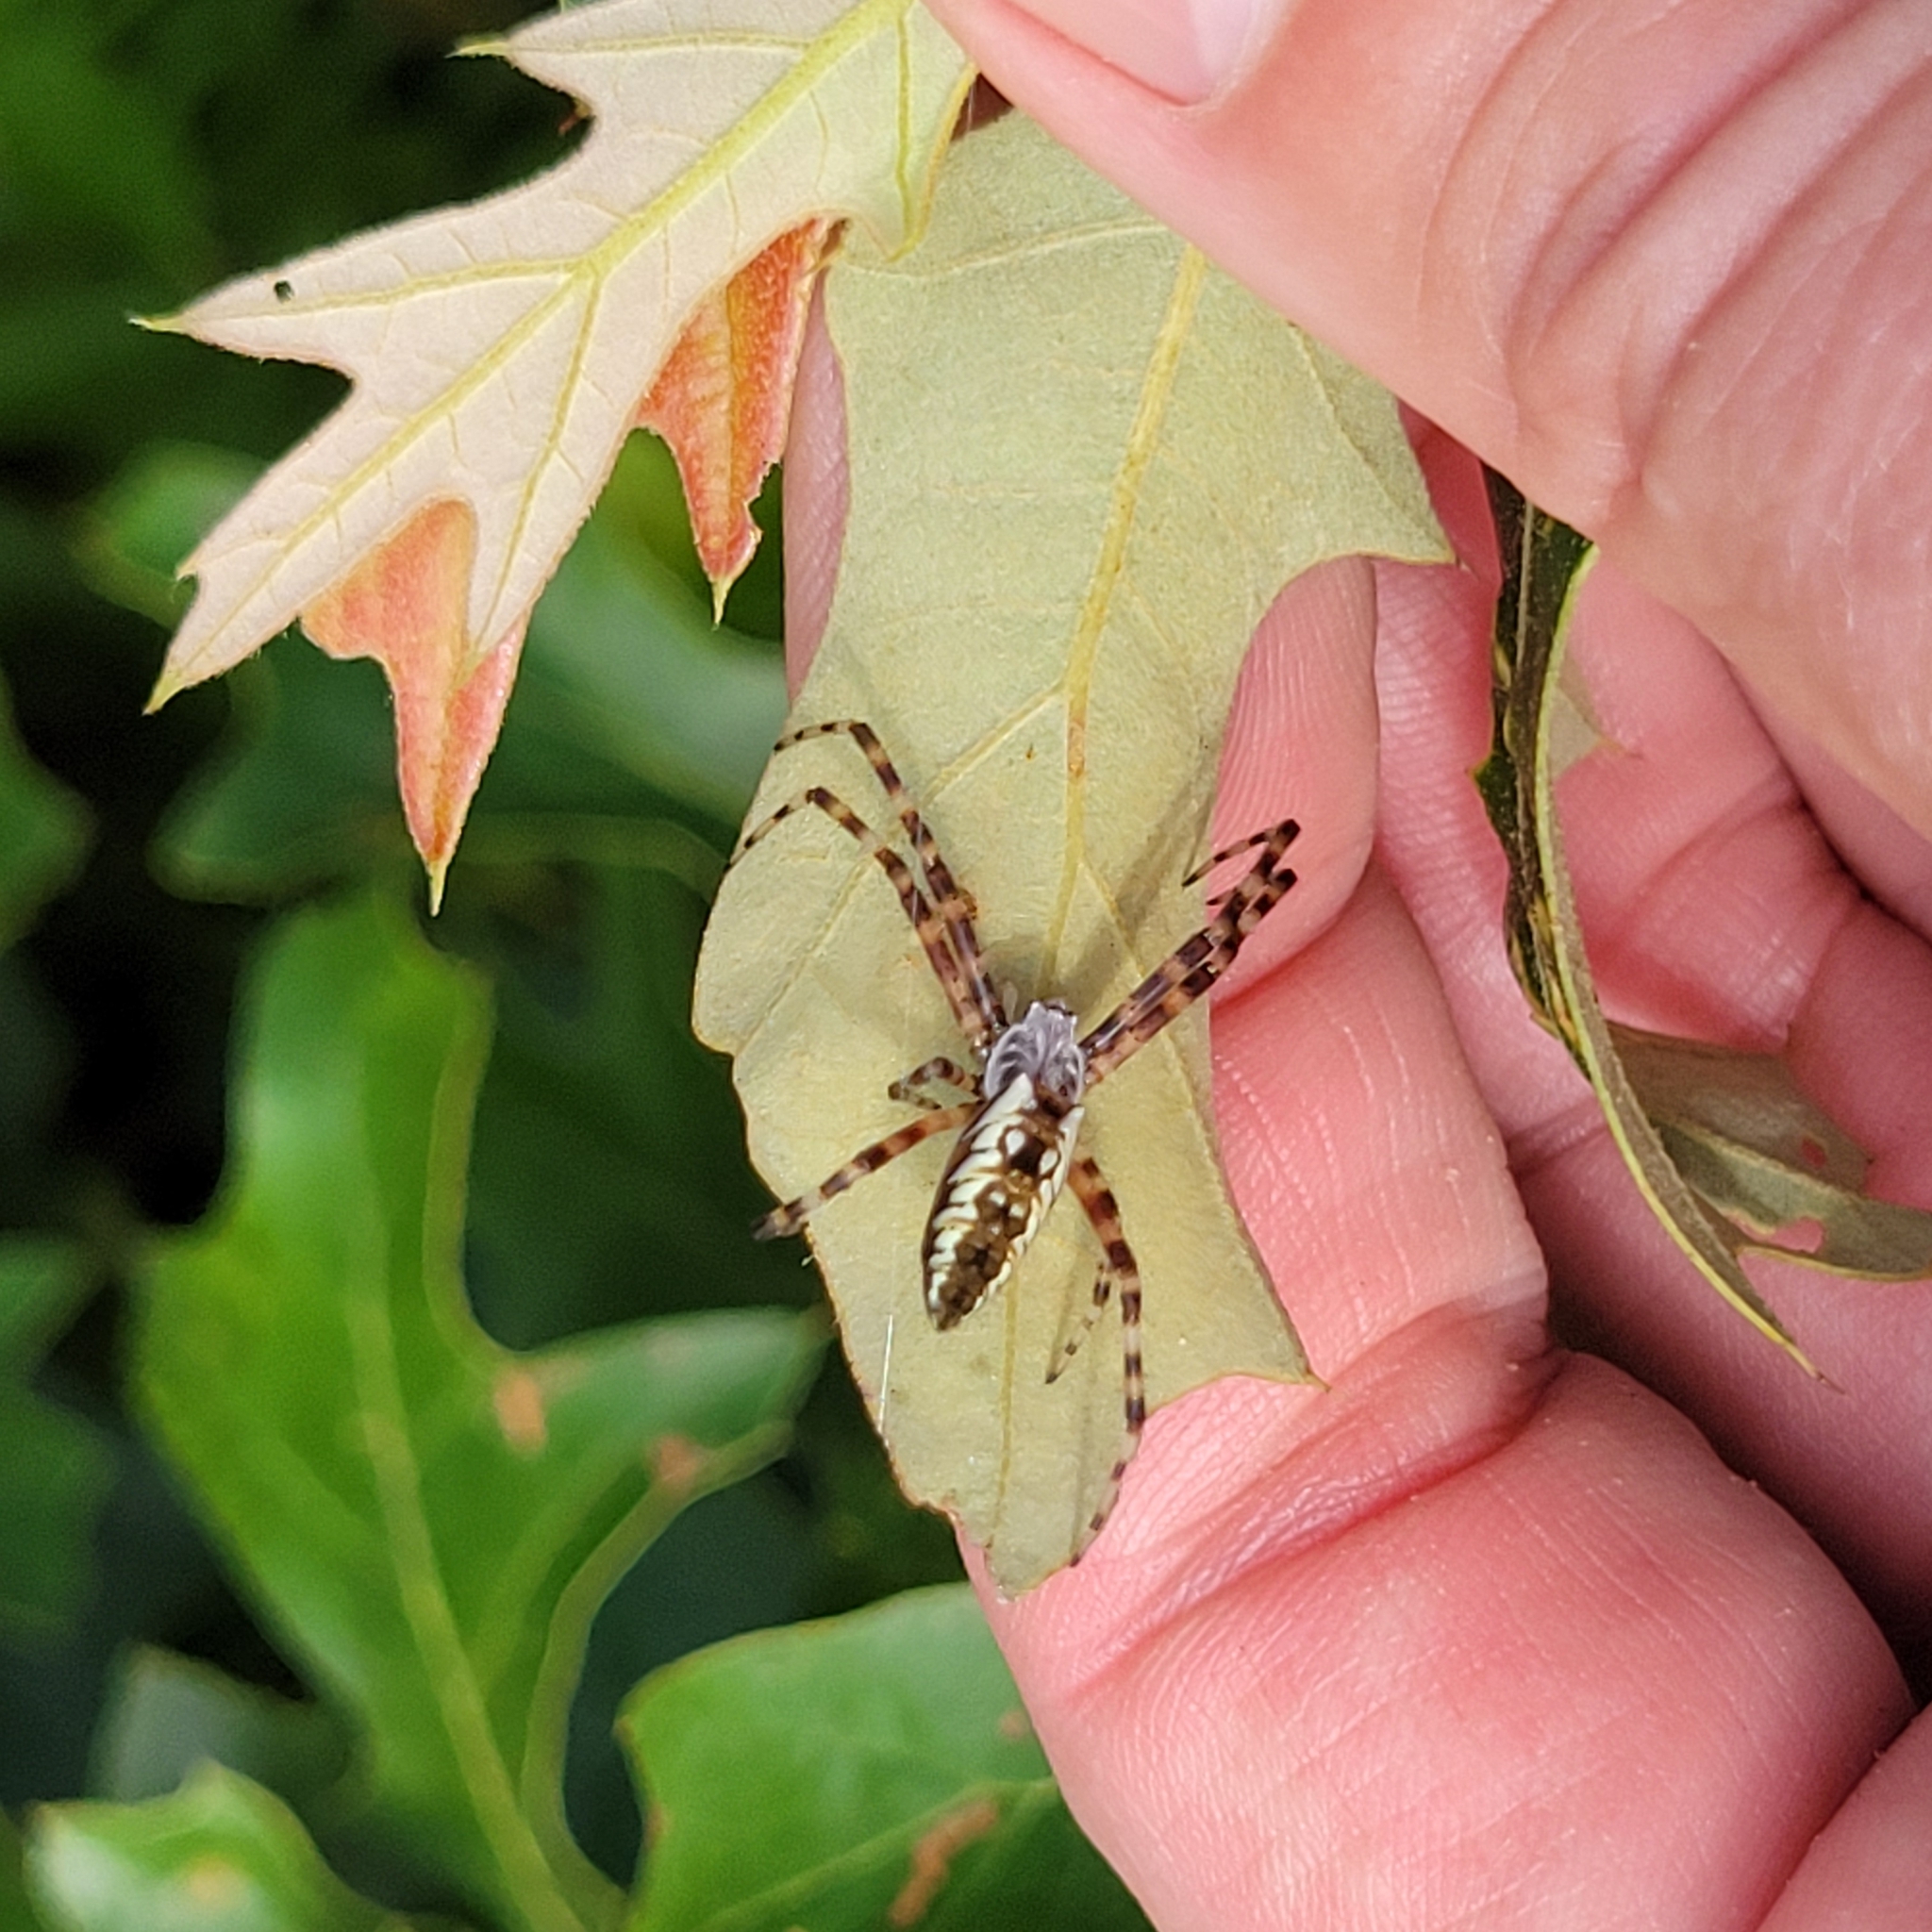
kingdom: Animalia
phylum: Arthropoda
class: Arachnida
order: Araneae
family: Araneidae
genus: Argiope
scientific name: Argiope aurantia
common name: Orb weavers
